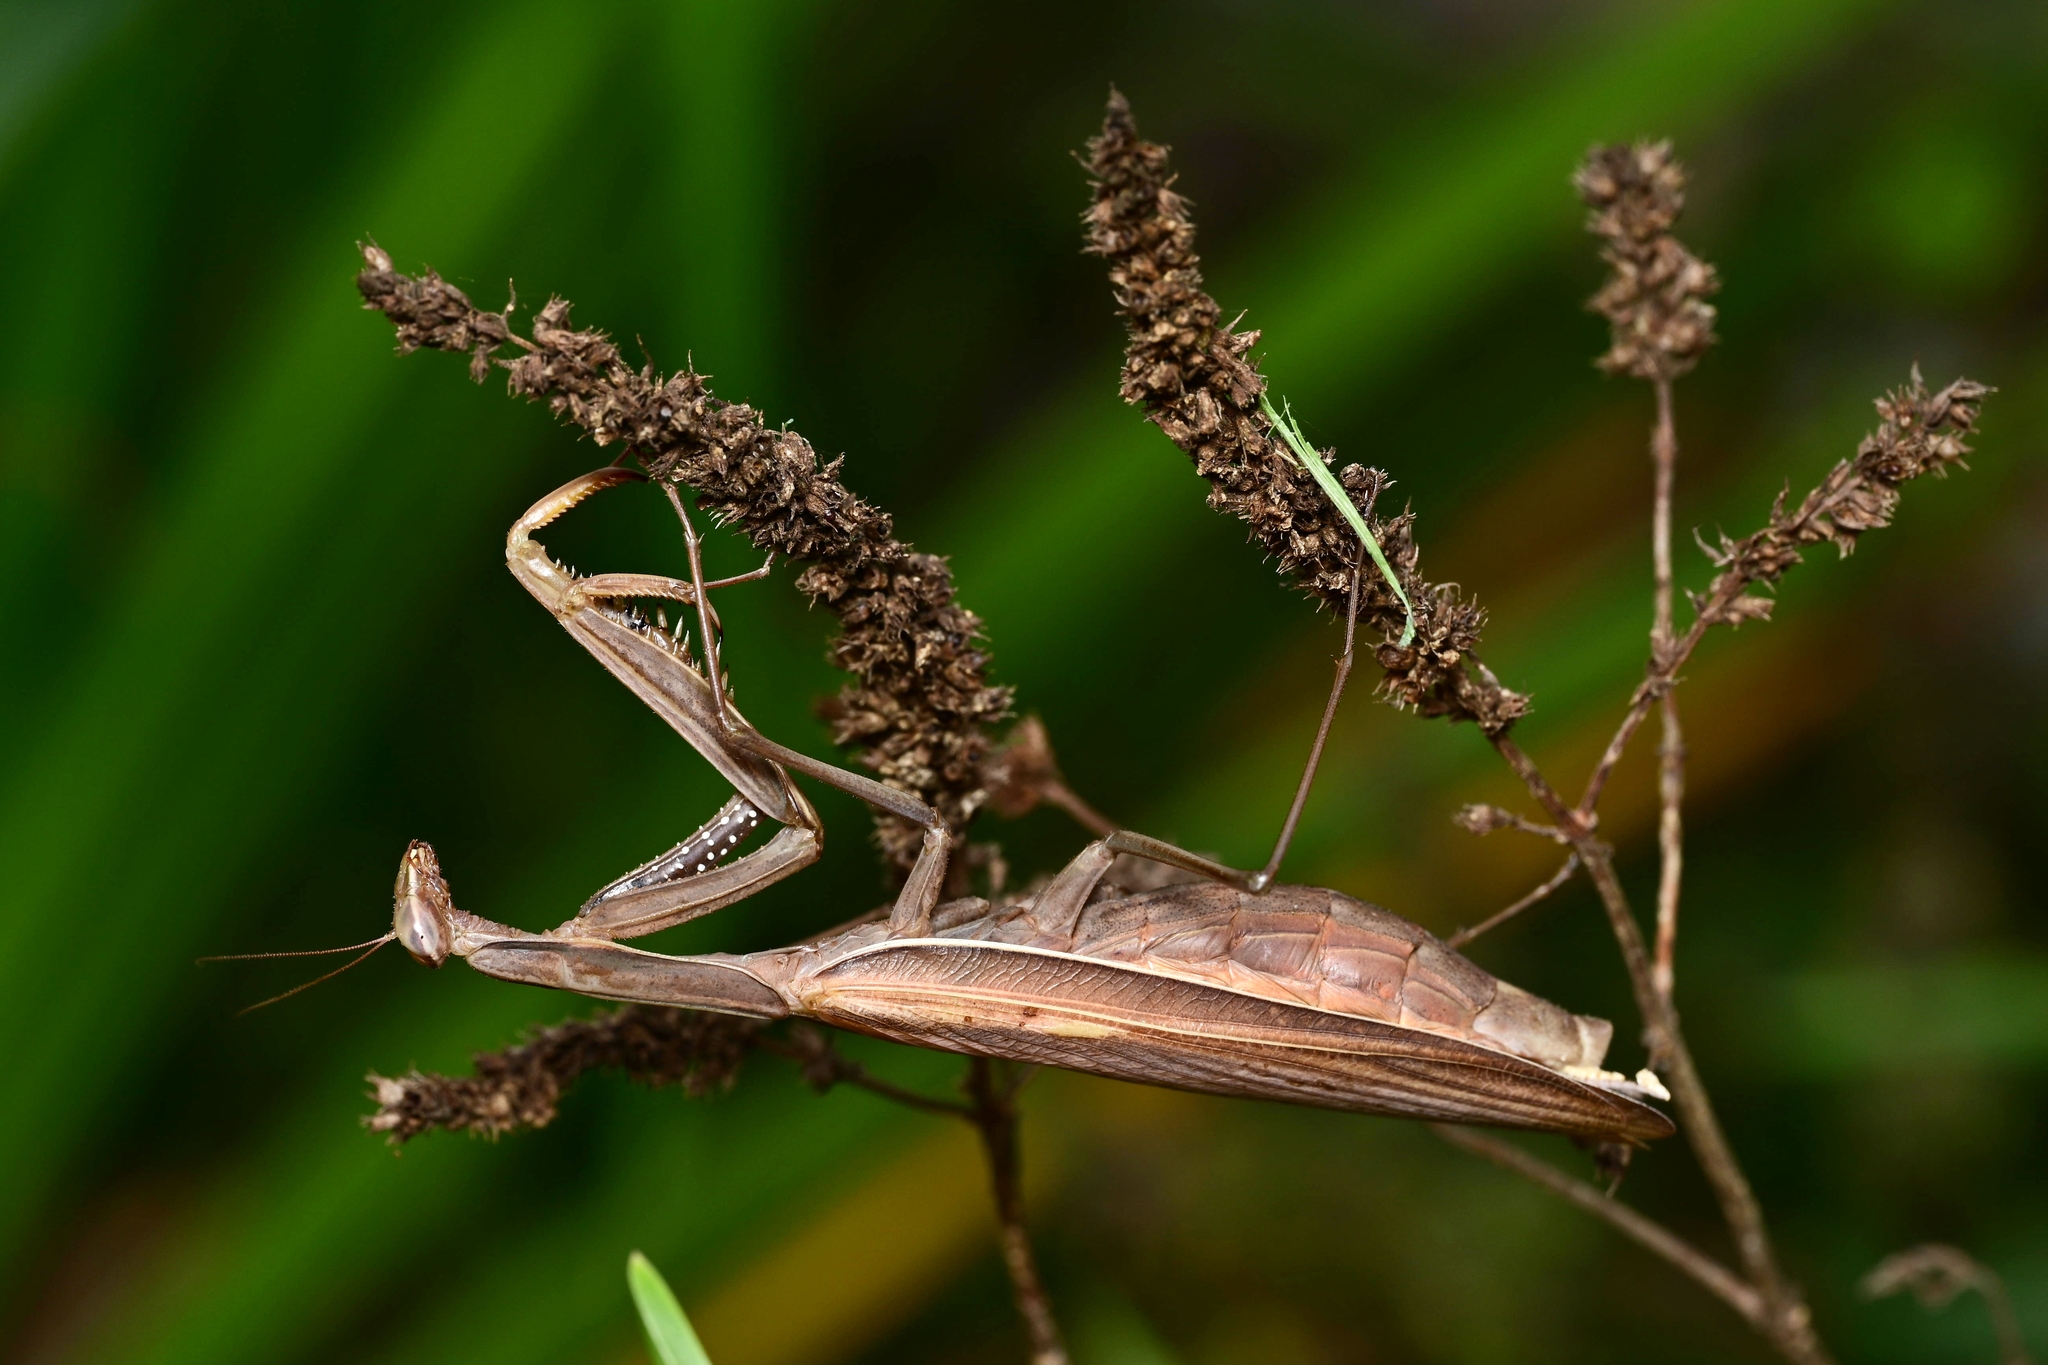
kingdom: Animalia
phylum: Arthropoda
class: Insecta
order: Mantodea
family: Mantidae
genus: Mantis
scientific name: Mantis religiosa
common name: Praying mantis
